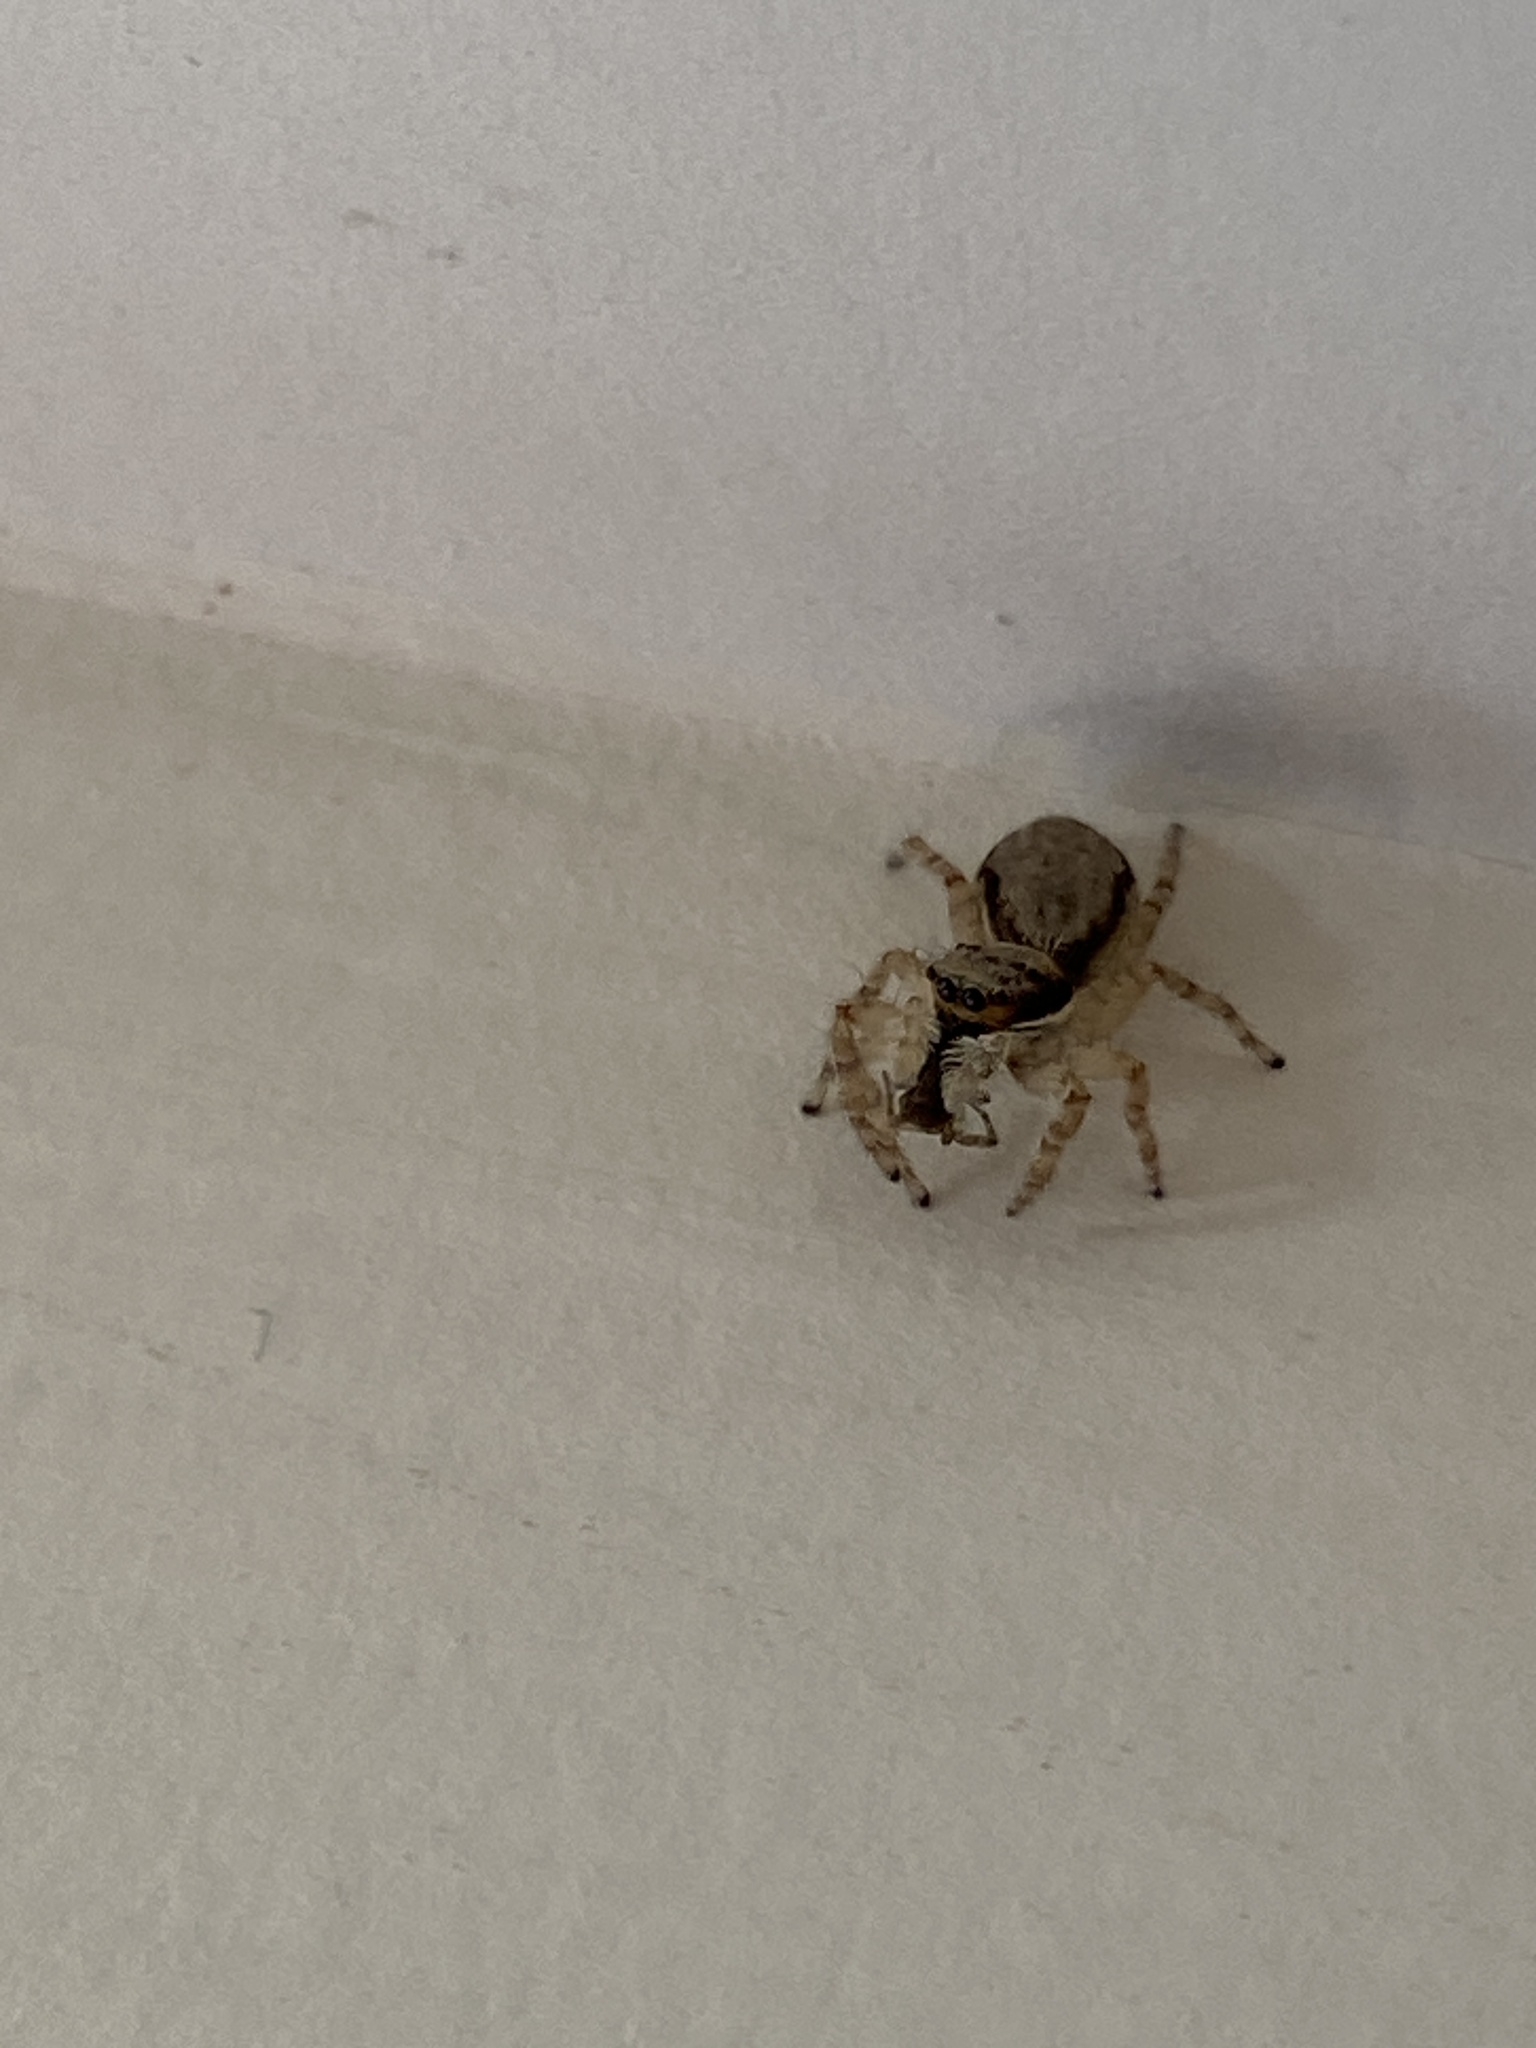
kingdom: Animalia
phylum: Arthropoda
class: Arachnida
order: Araneae
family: Salticidae
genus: Menemerus
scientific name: Menemerus bivittatus
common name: Gray wall jumper
